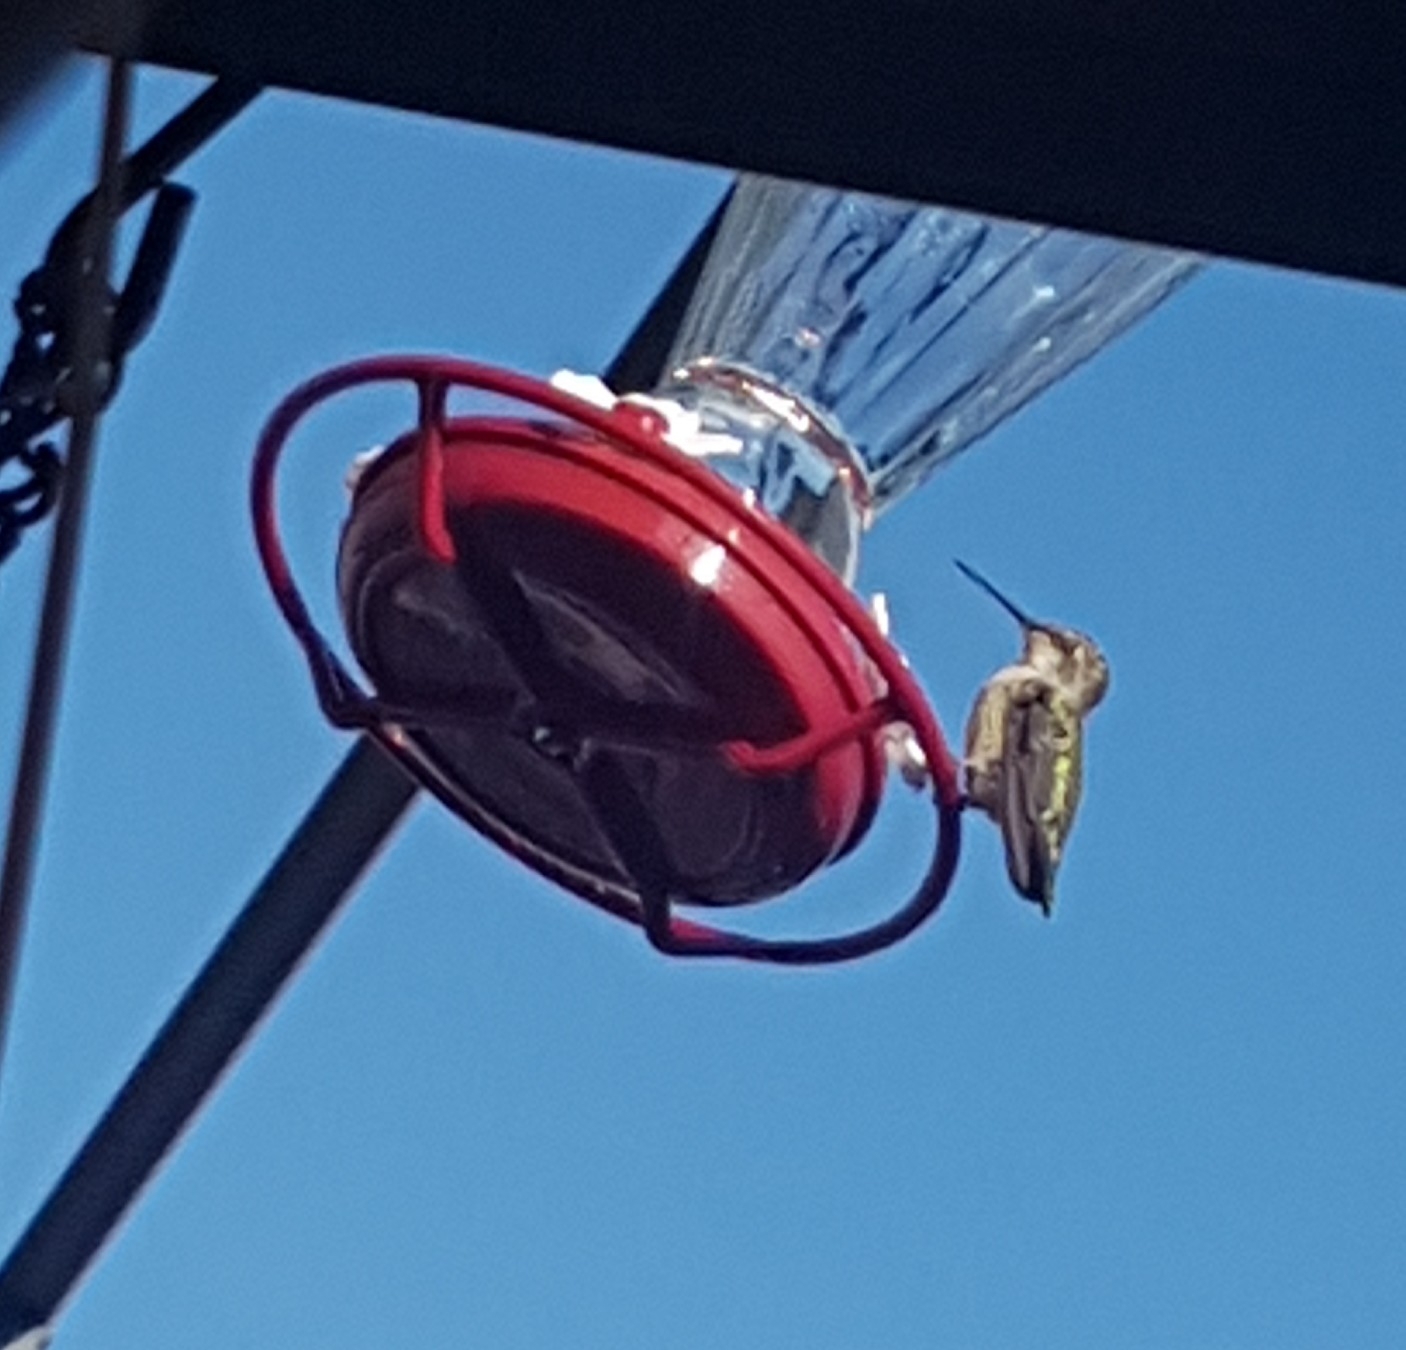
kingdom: Animalia
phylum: Chordata
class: Aves
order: Apodiformes
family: Trochilidae
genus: Calypte
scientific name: Calypte anna
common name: Anna's hummingbird
